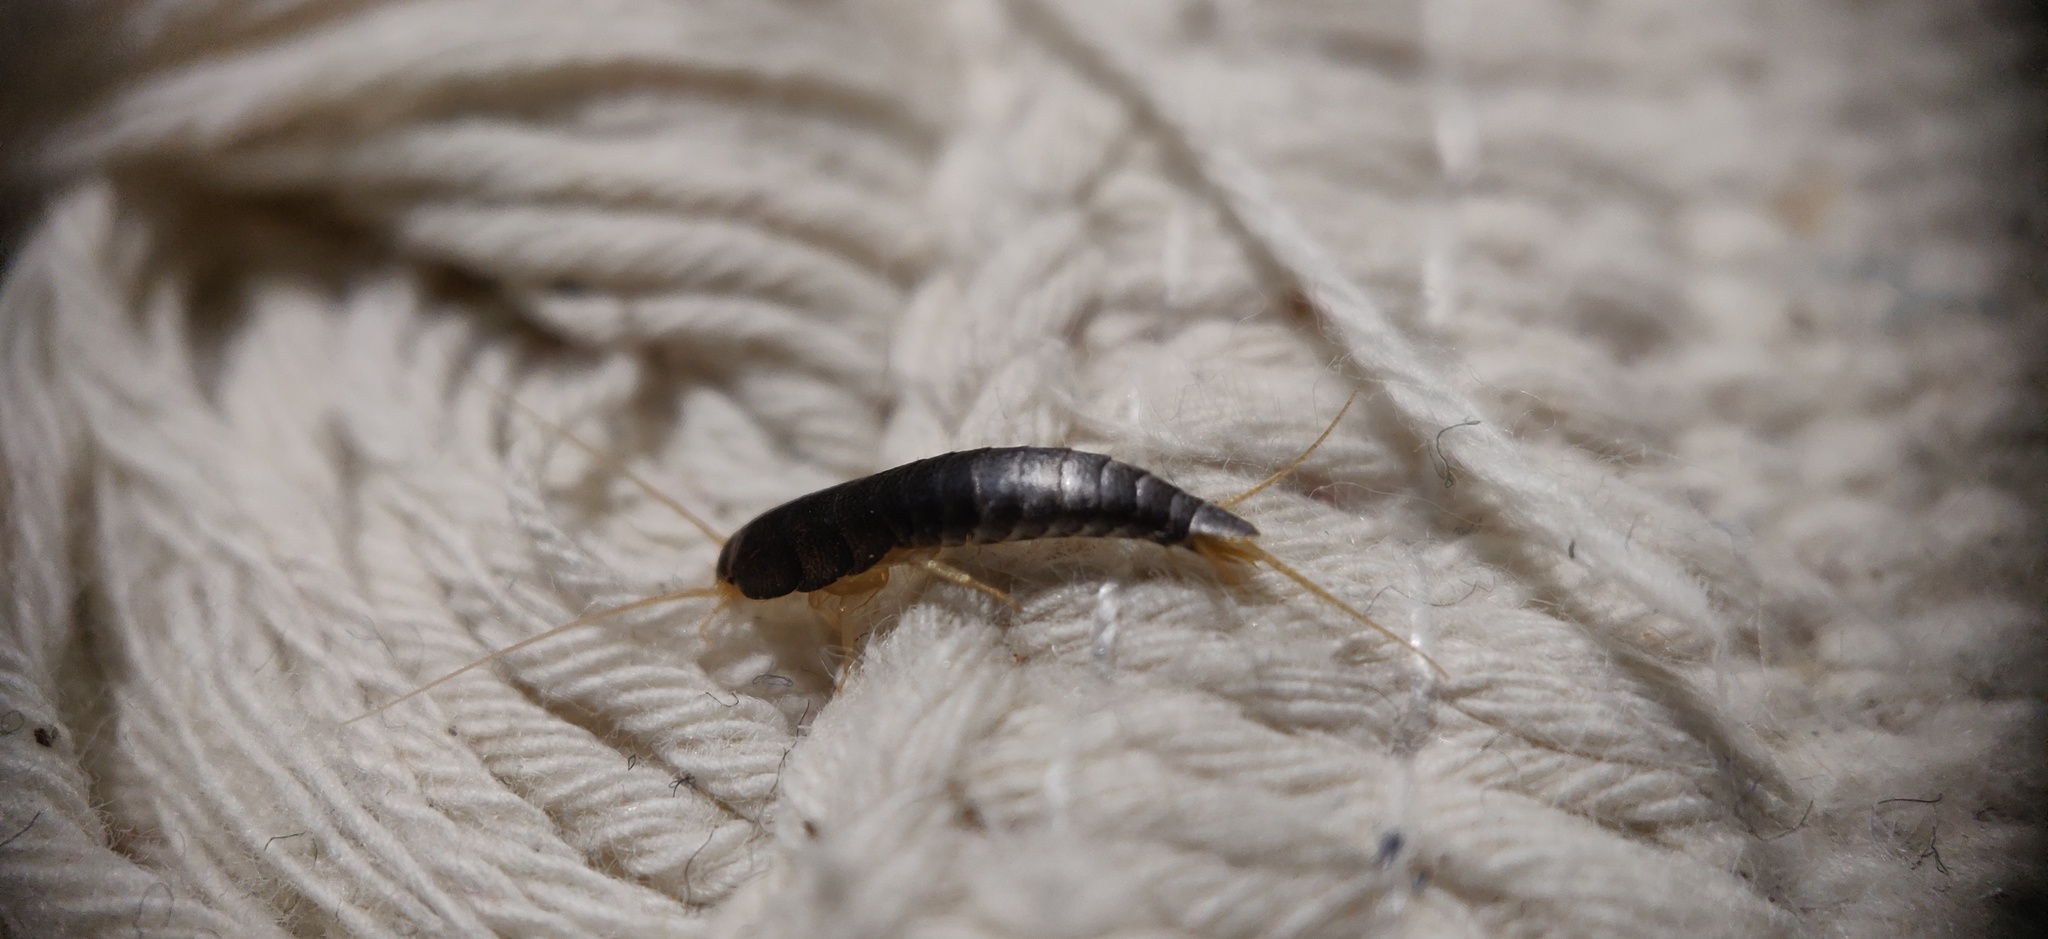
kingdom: Animalia
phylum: Arthropoda
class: Insecta
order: Zygentoma
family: Lepismatidae
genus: Lepisma
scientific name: Lepisma saccharinum
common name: Silverfish
